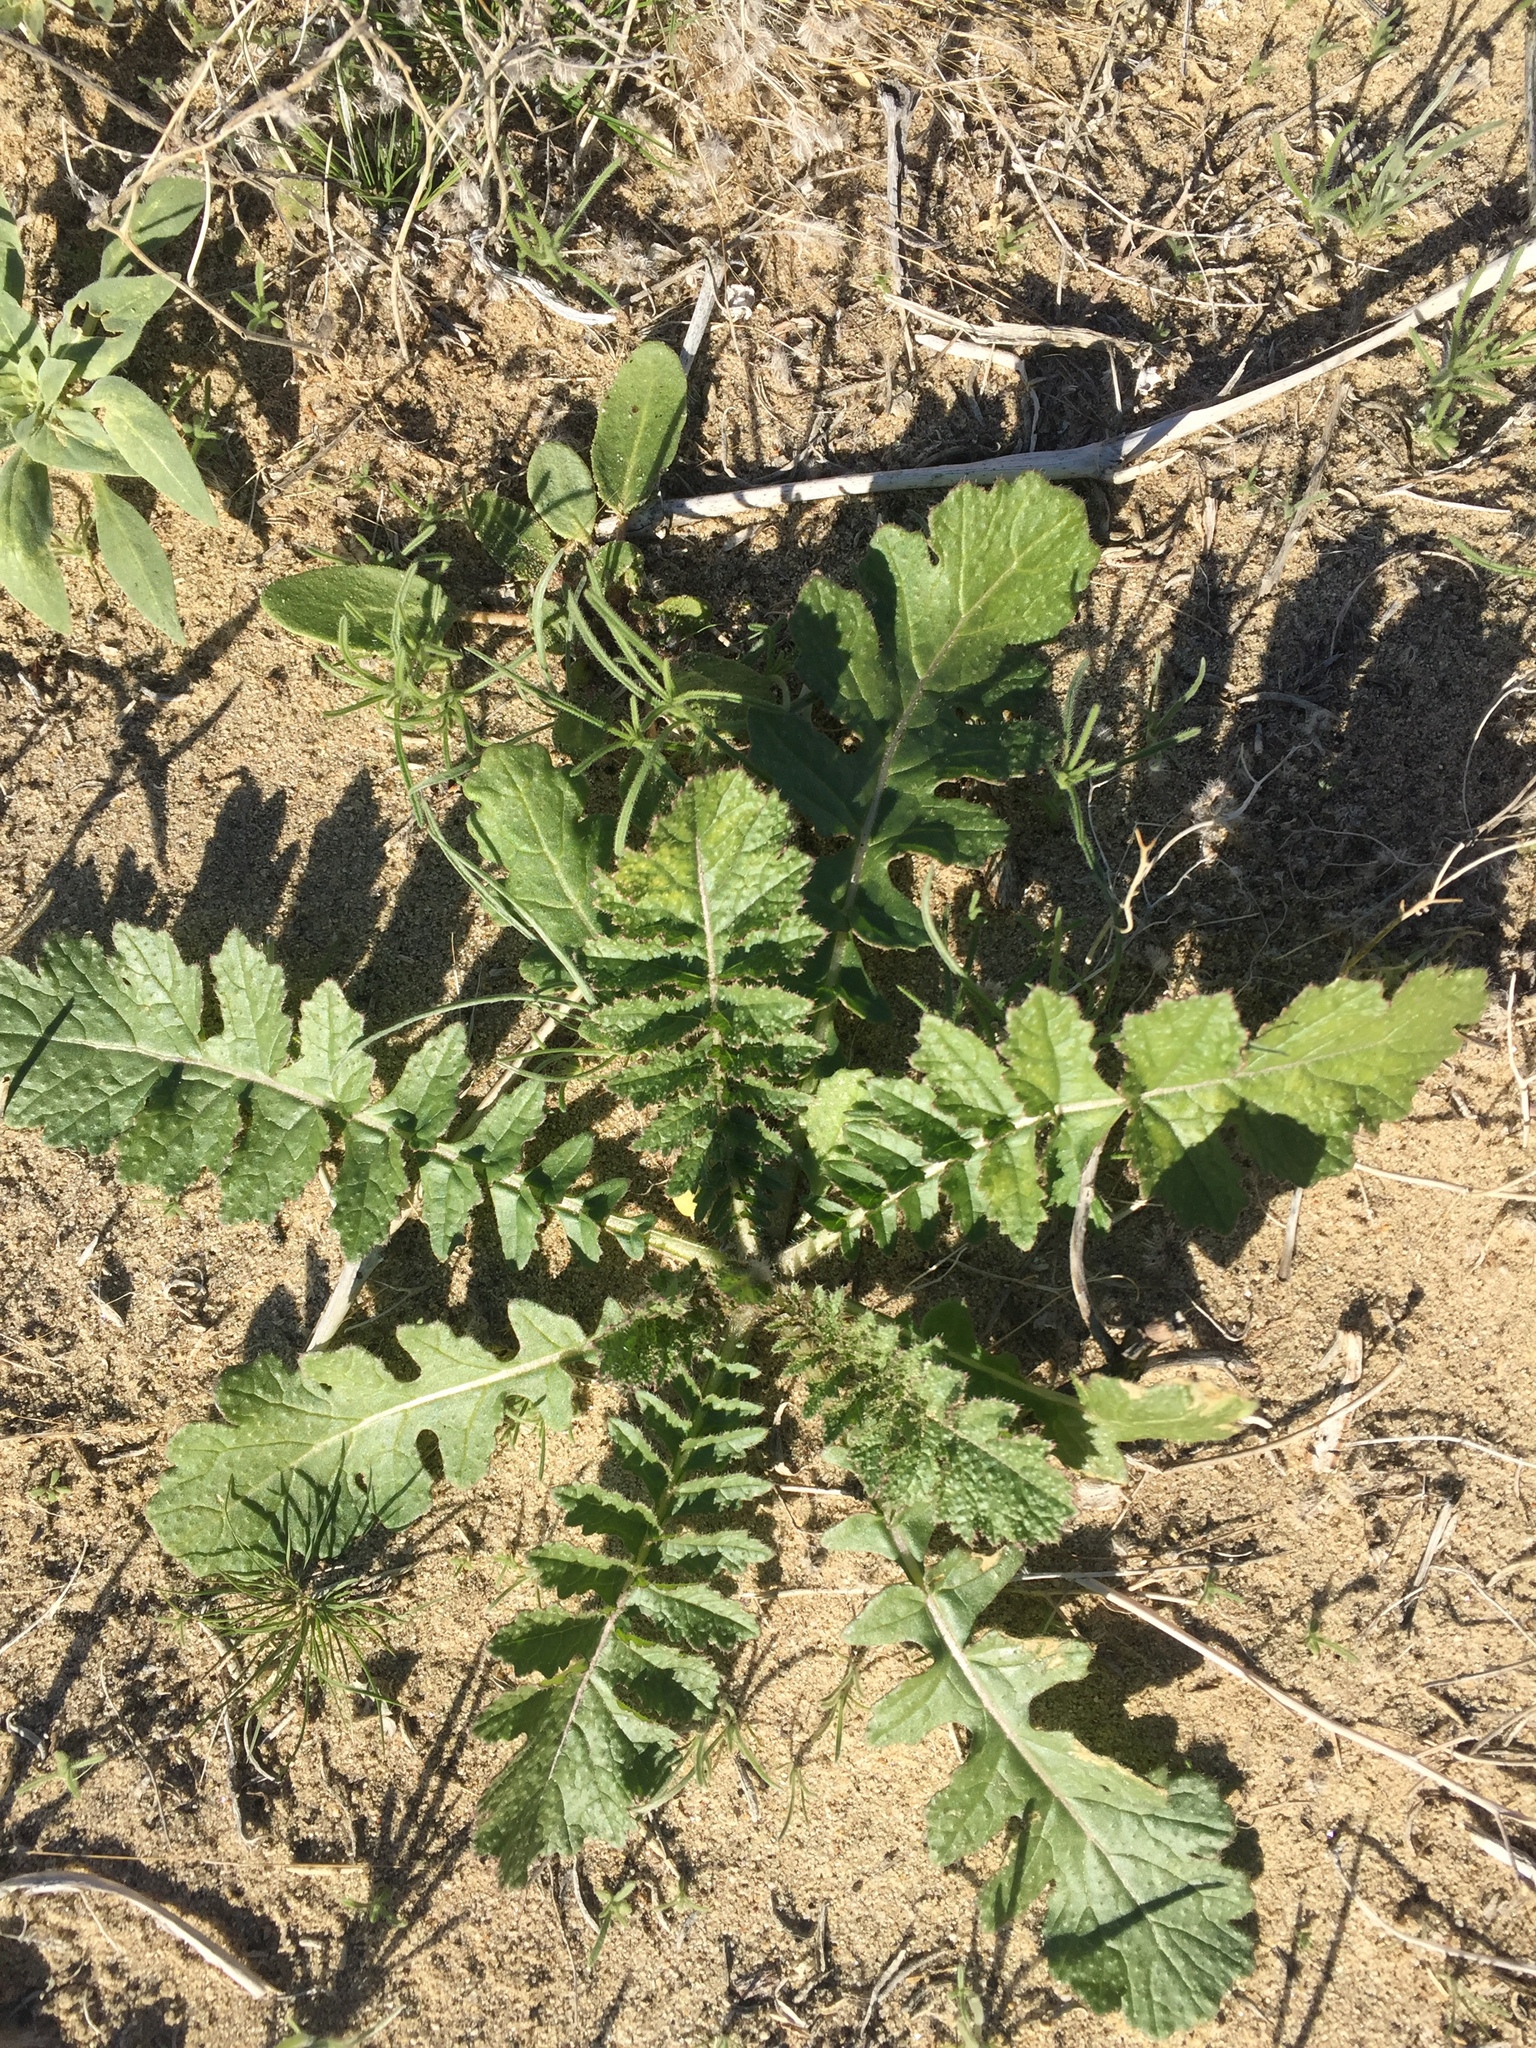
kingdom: Plantae
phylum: Tracheophyta
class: Magnoliopsida
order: Brassicales
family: Brassicaceae
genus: Brassica
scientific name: Brassica tournefortii
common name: Pale cabbage
